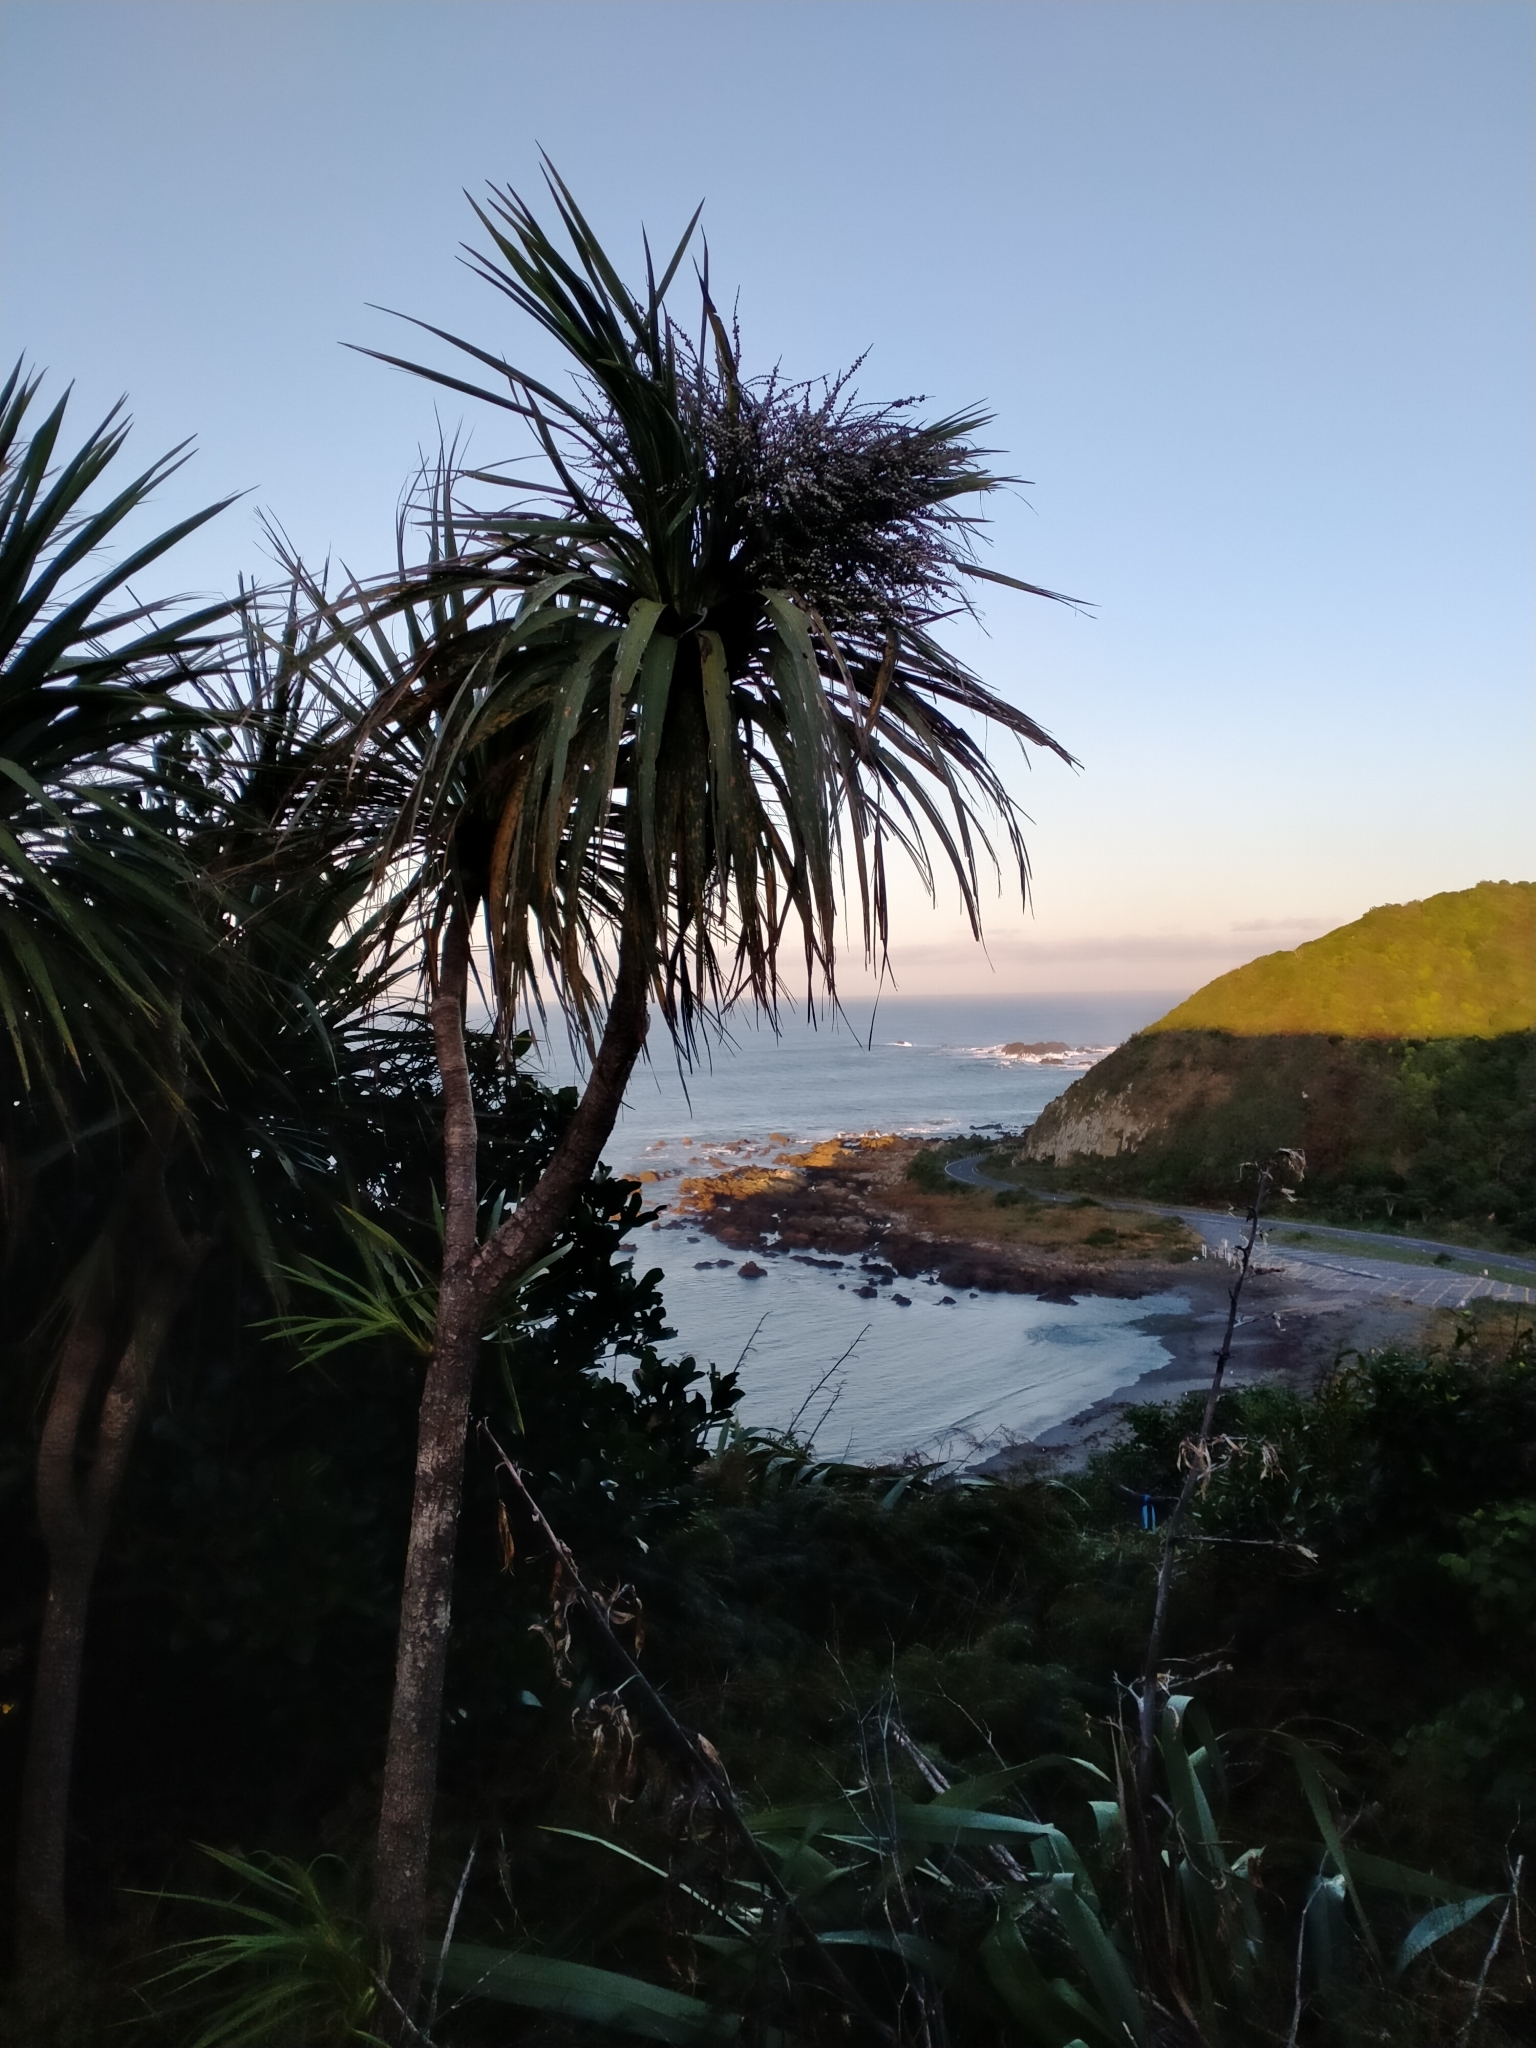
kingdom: Plantae
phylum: Tracheophyta
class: Liliopsida
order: Asparagales
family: Asparagaceae
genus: Cordyline
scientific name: Cordyline australis
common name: Cabbage-palm
